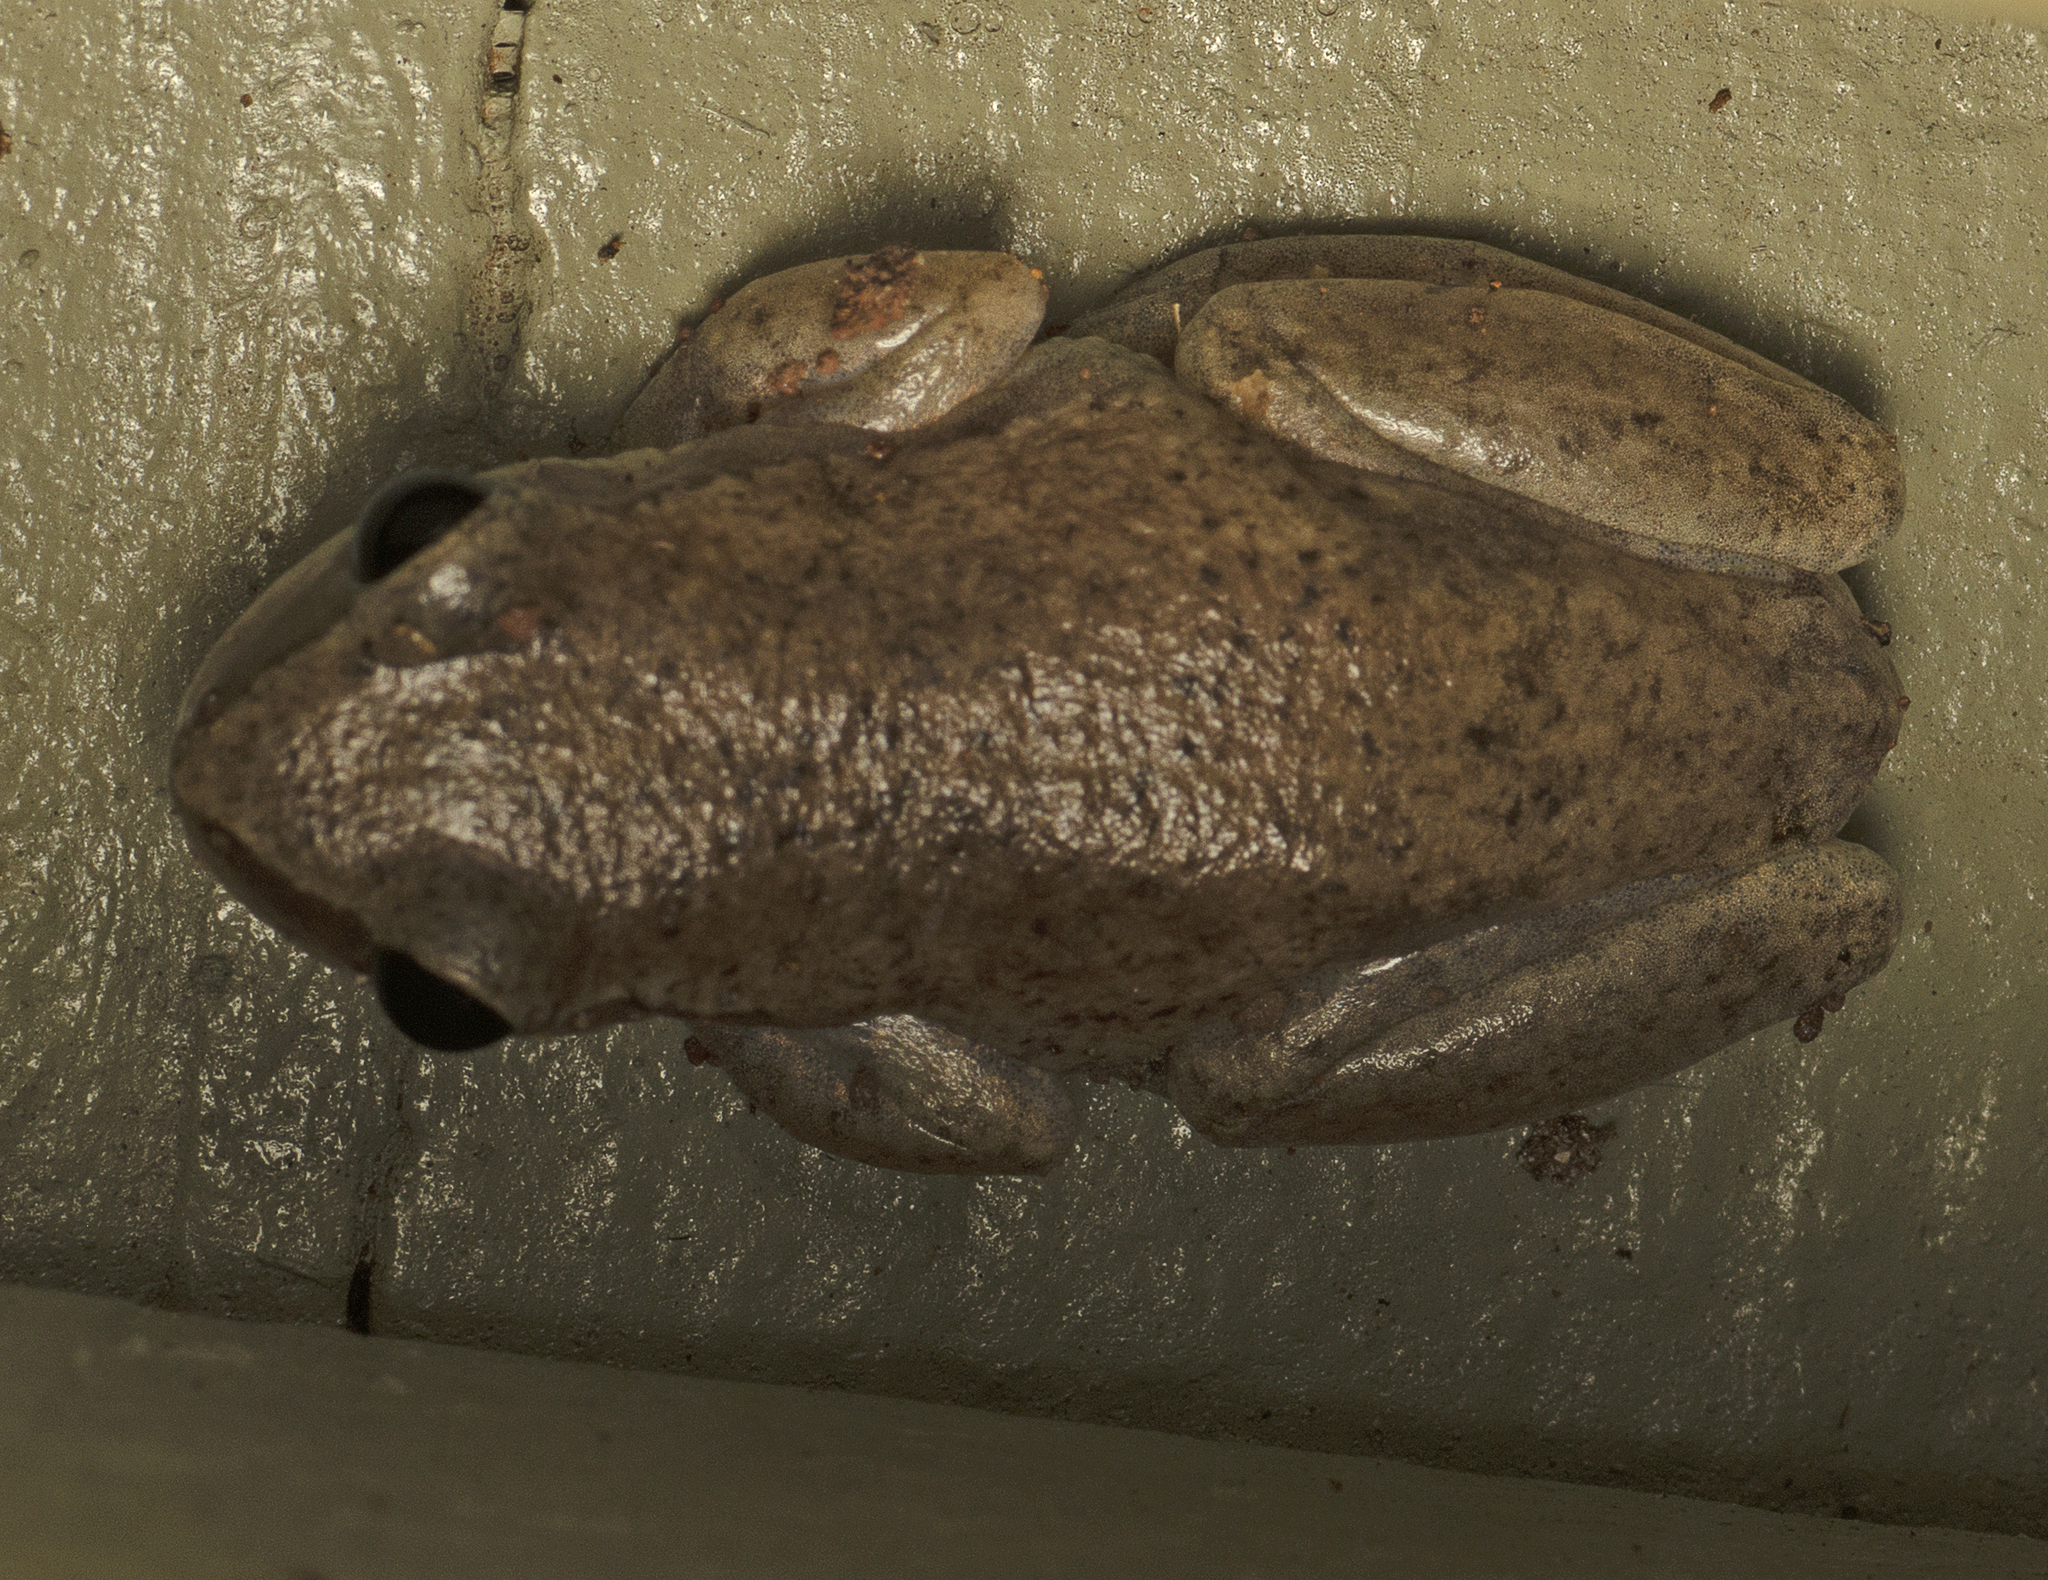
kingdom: Animalia
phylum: Chordata
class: Amphibia
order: Anura
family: Pelodryadidae
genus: Litoria
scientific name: Litoria rubella
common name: Desert tree frog
